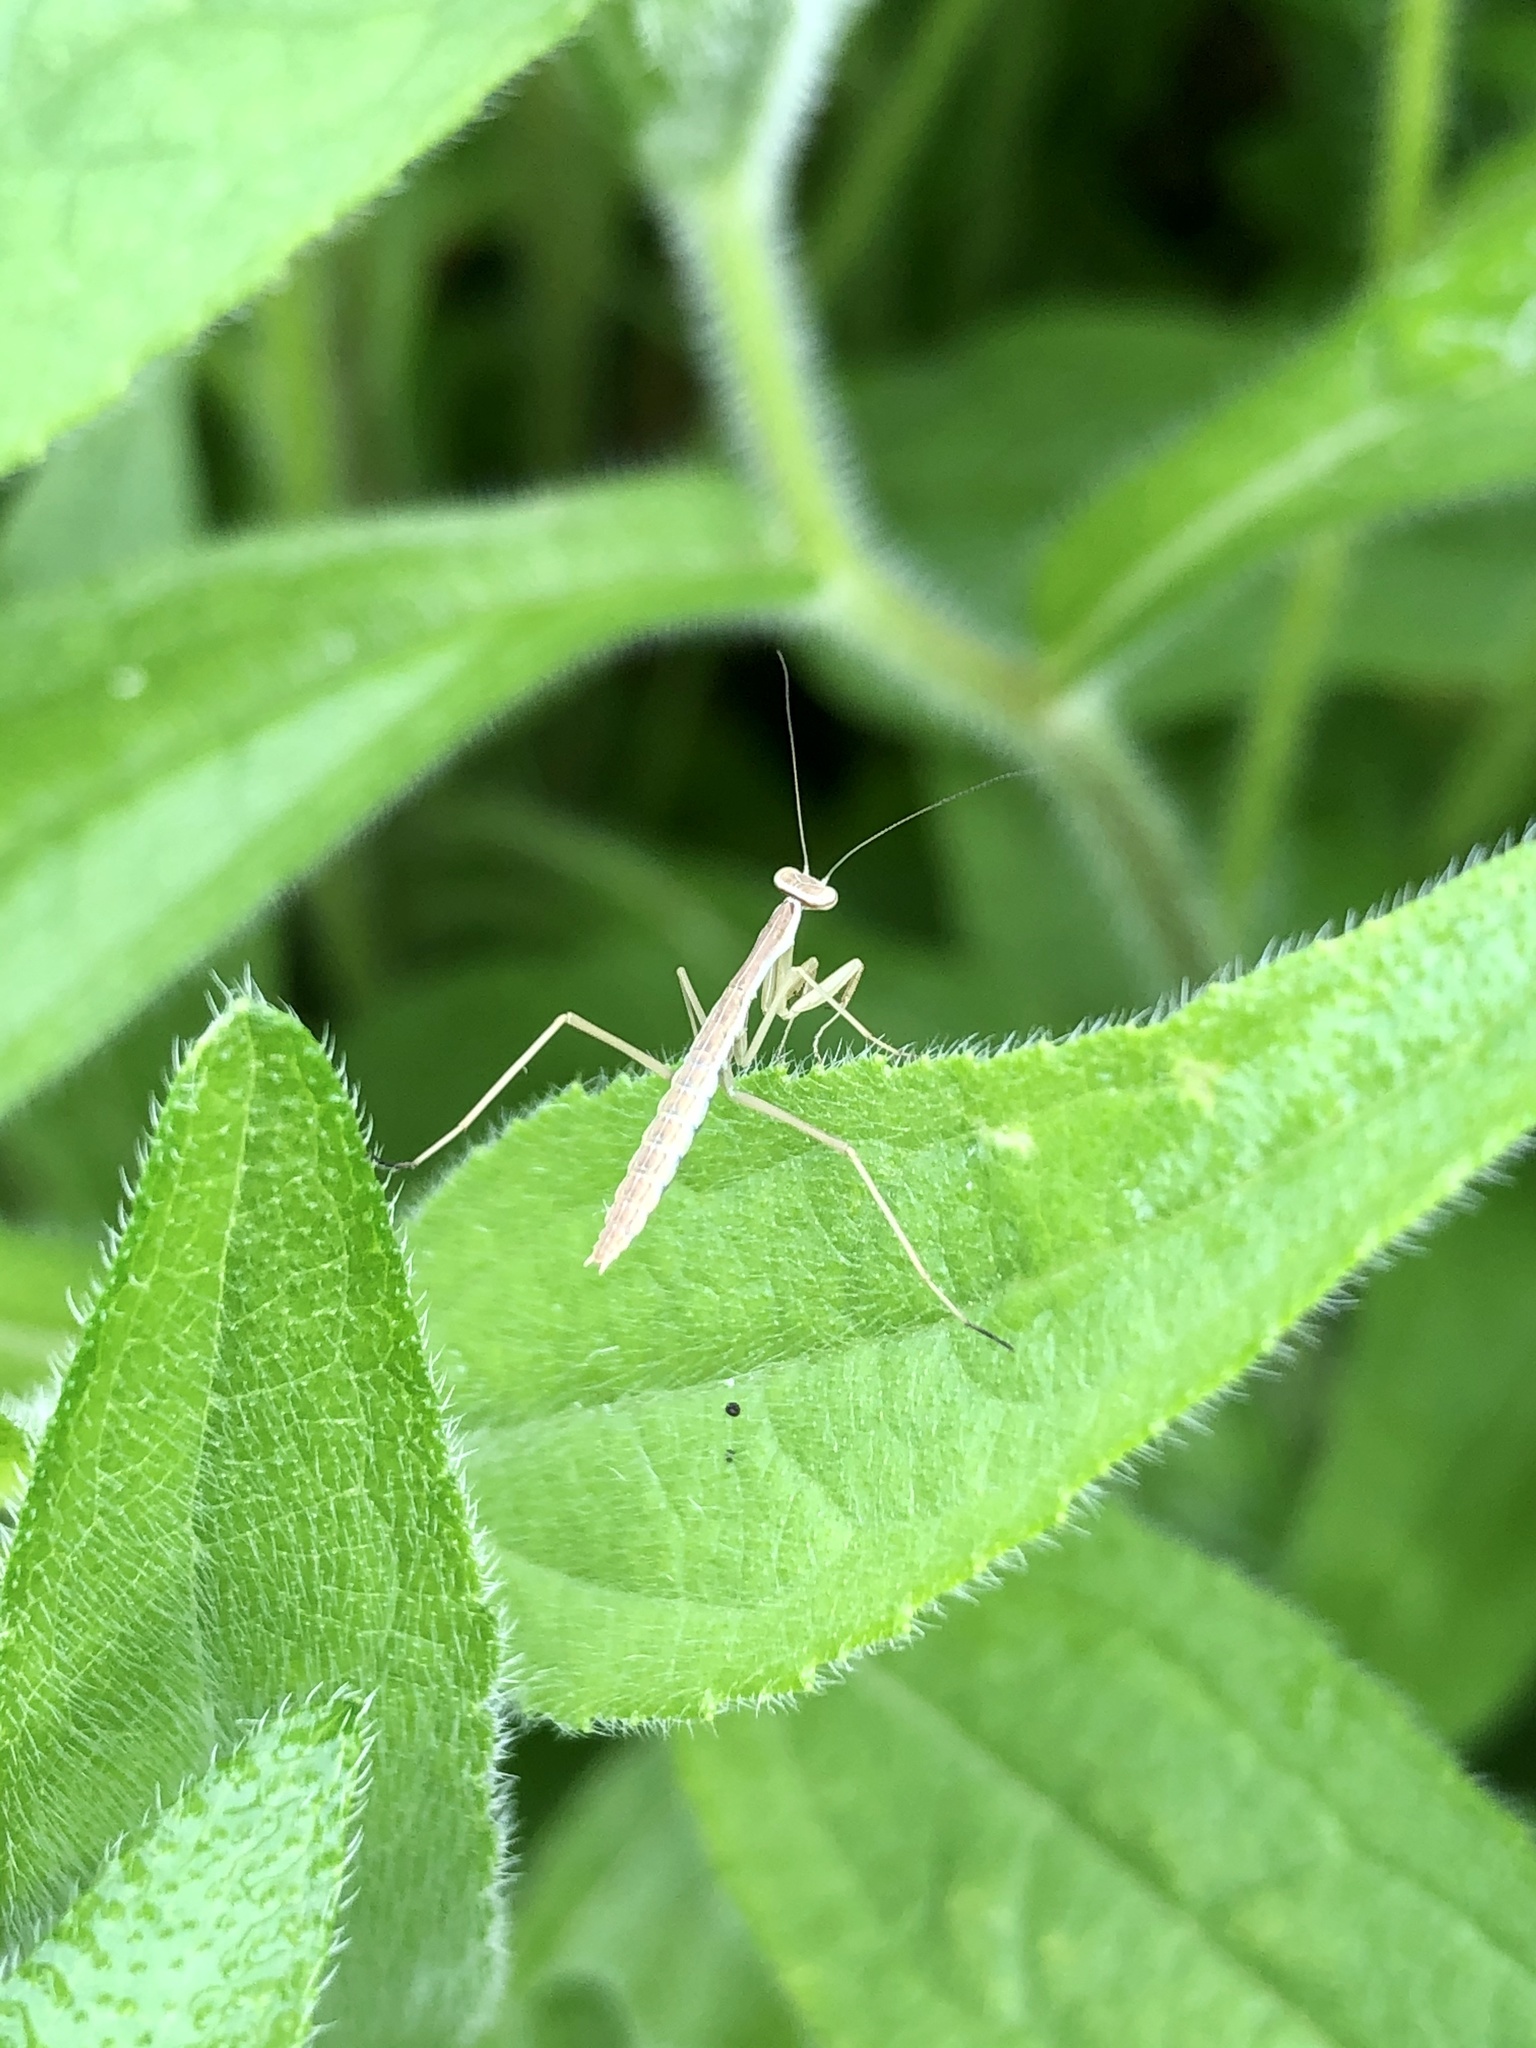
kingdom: Animalia
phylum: Arthropoda
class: Insecta
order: Mantodea
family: Mantidae
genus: Tenodera
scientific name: Tenodera sinensis
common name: Chinese mantis
